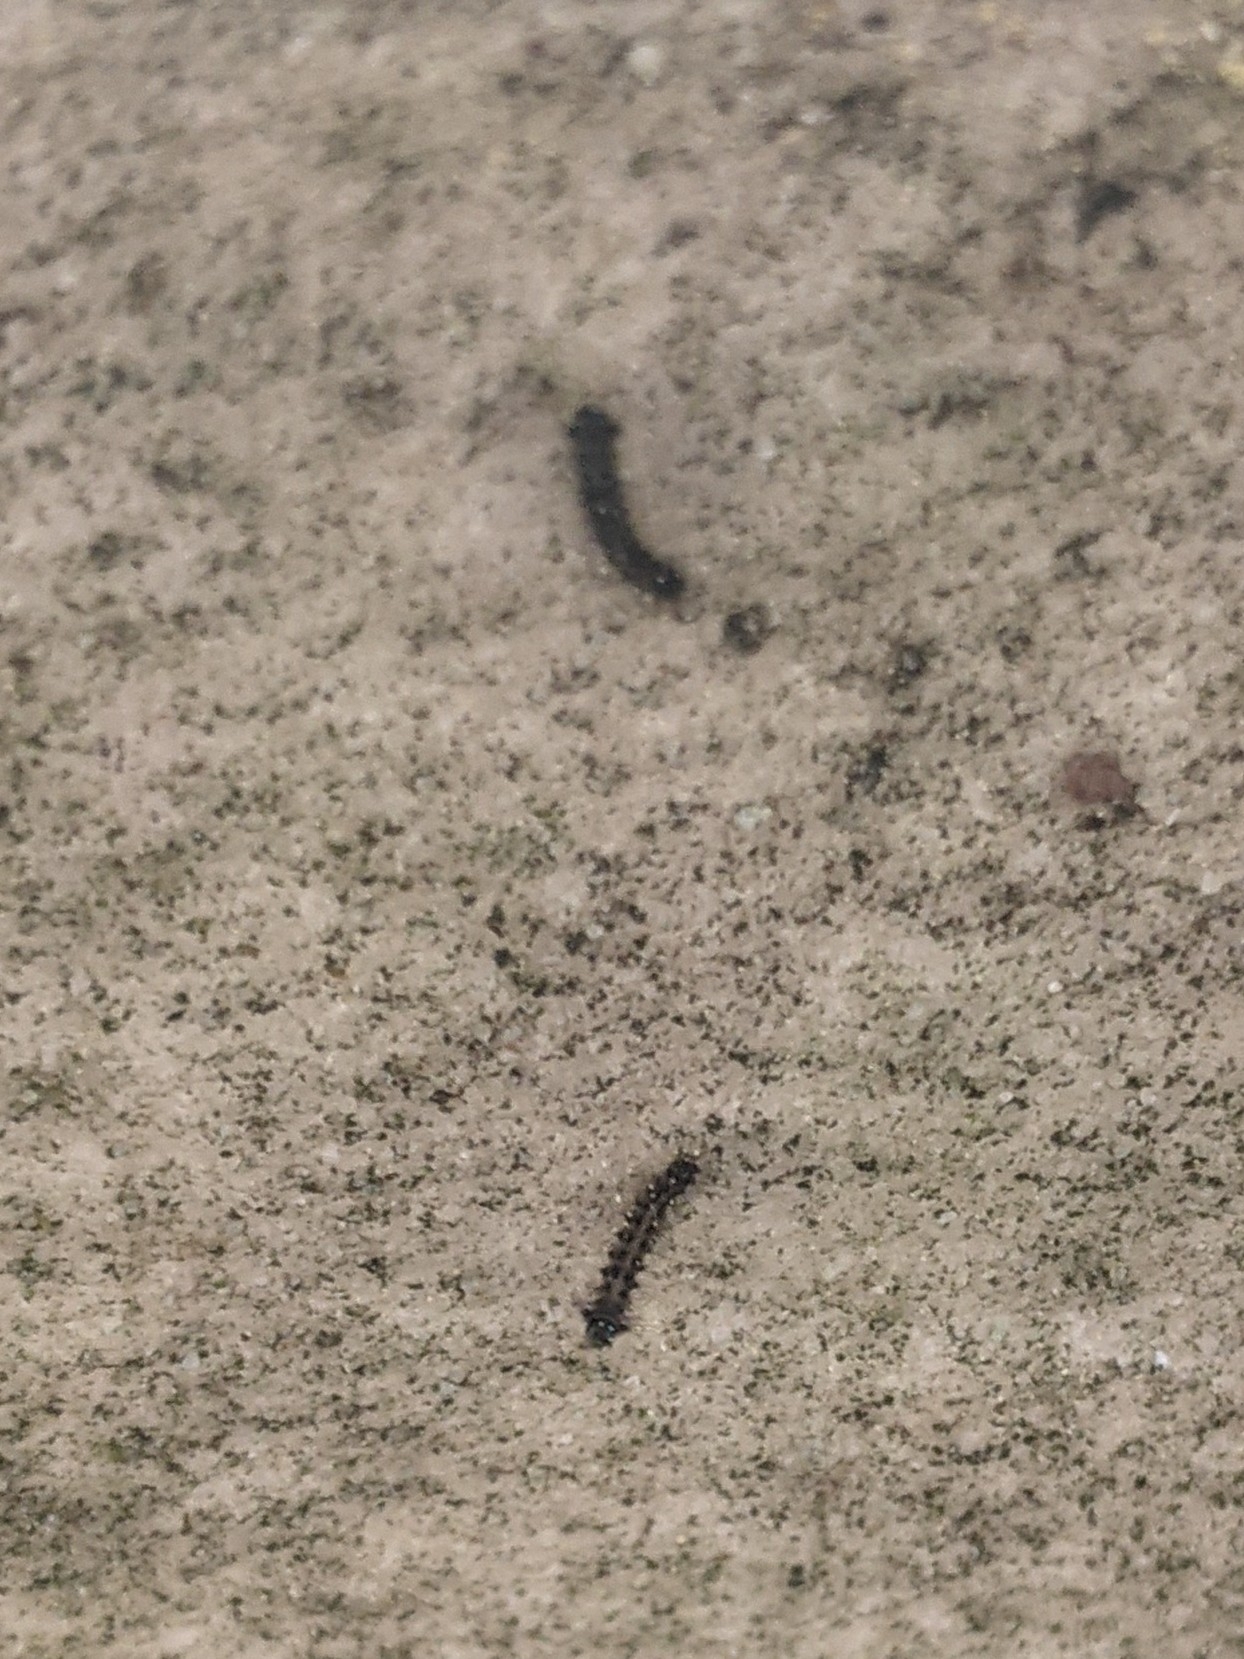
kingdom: Animalia
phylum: Arthropoda
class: Insecta
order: Lepidoptera
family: Erebidae
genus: Lymantria
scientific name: Lymantria dispar
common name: Gypsy moth
